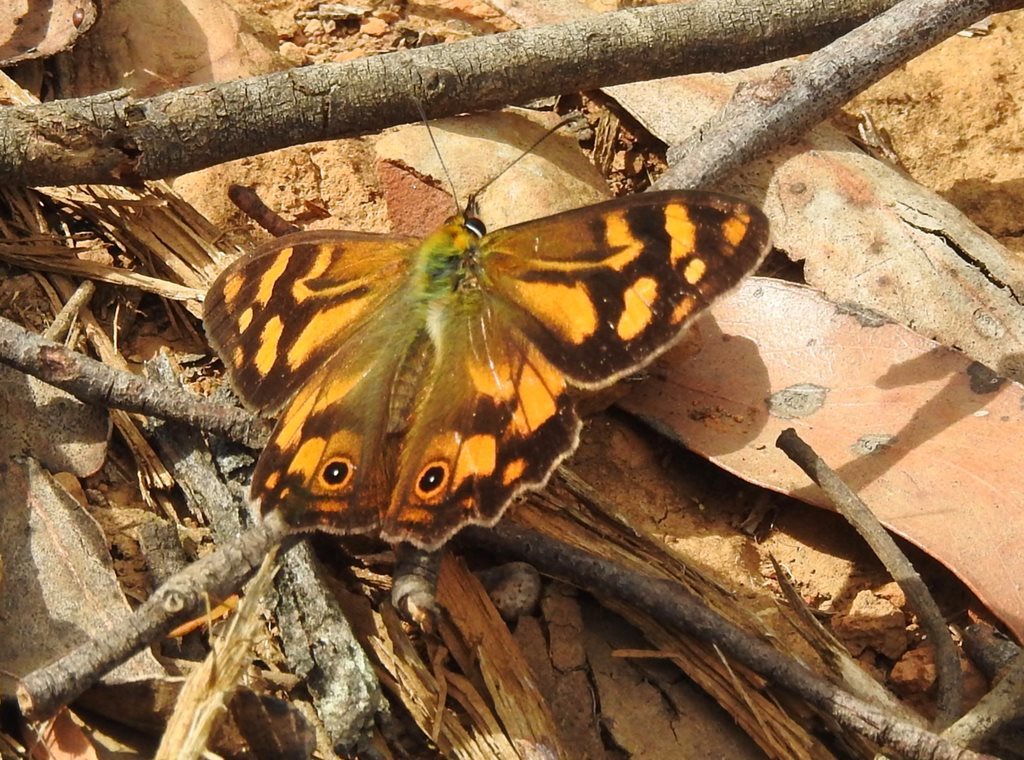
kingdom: Animalia
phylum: Arthropoda
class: Insecta
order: Lepidoptera
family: Nymphalidae
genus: Heteronympha
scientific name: Heteronympha banksii
